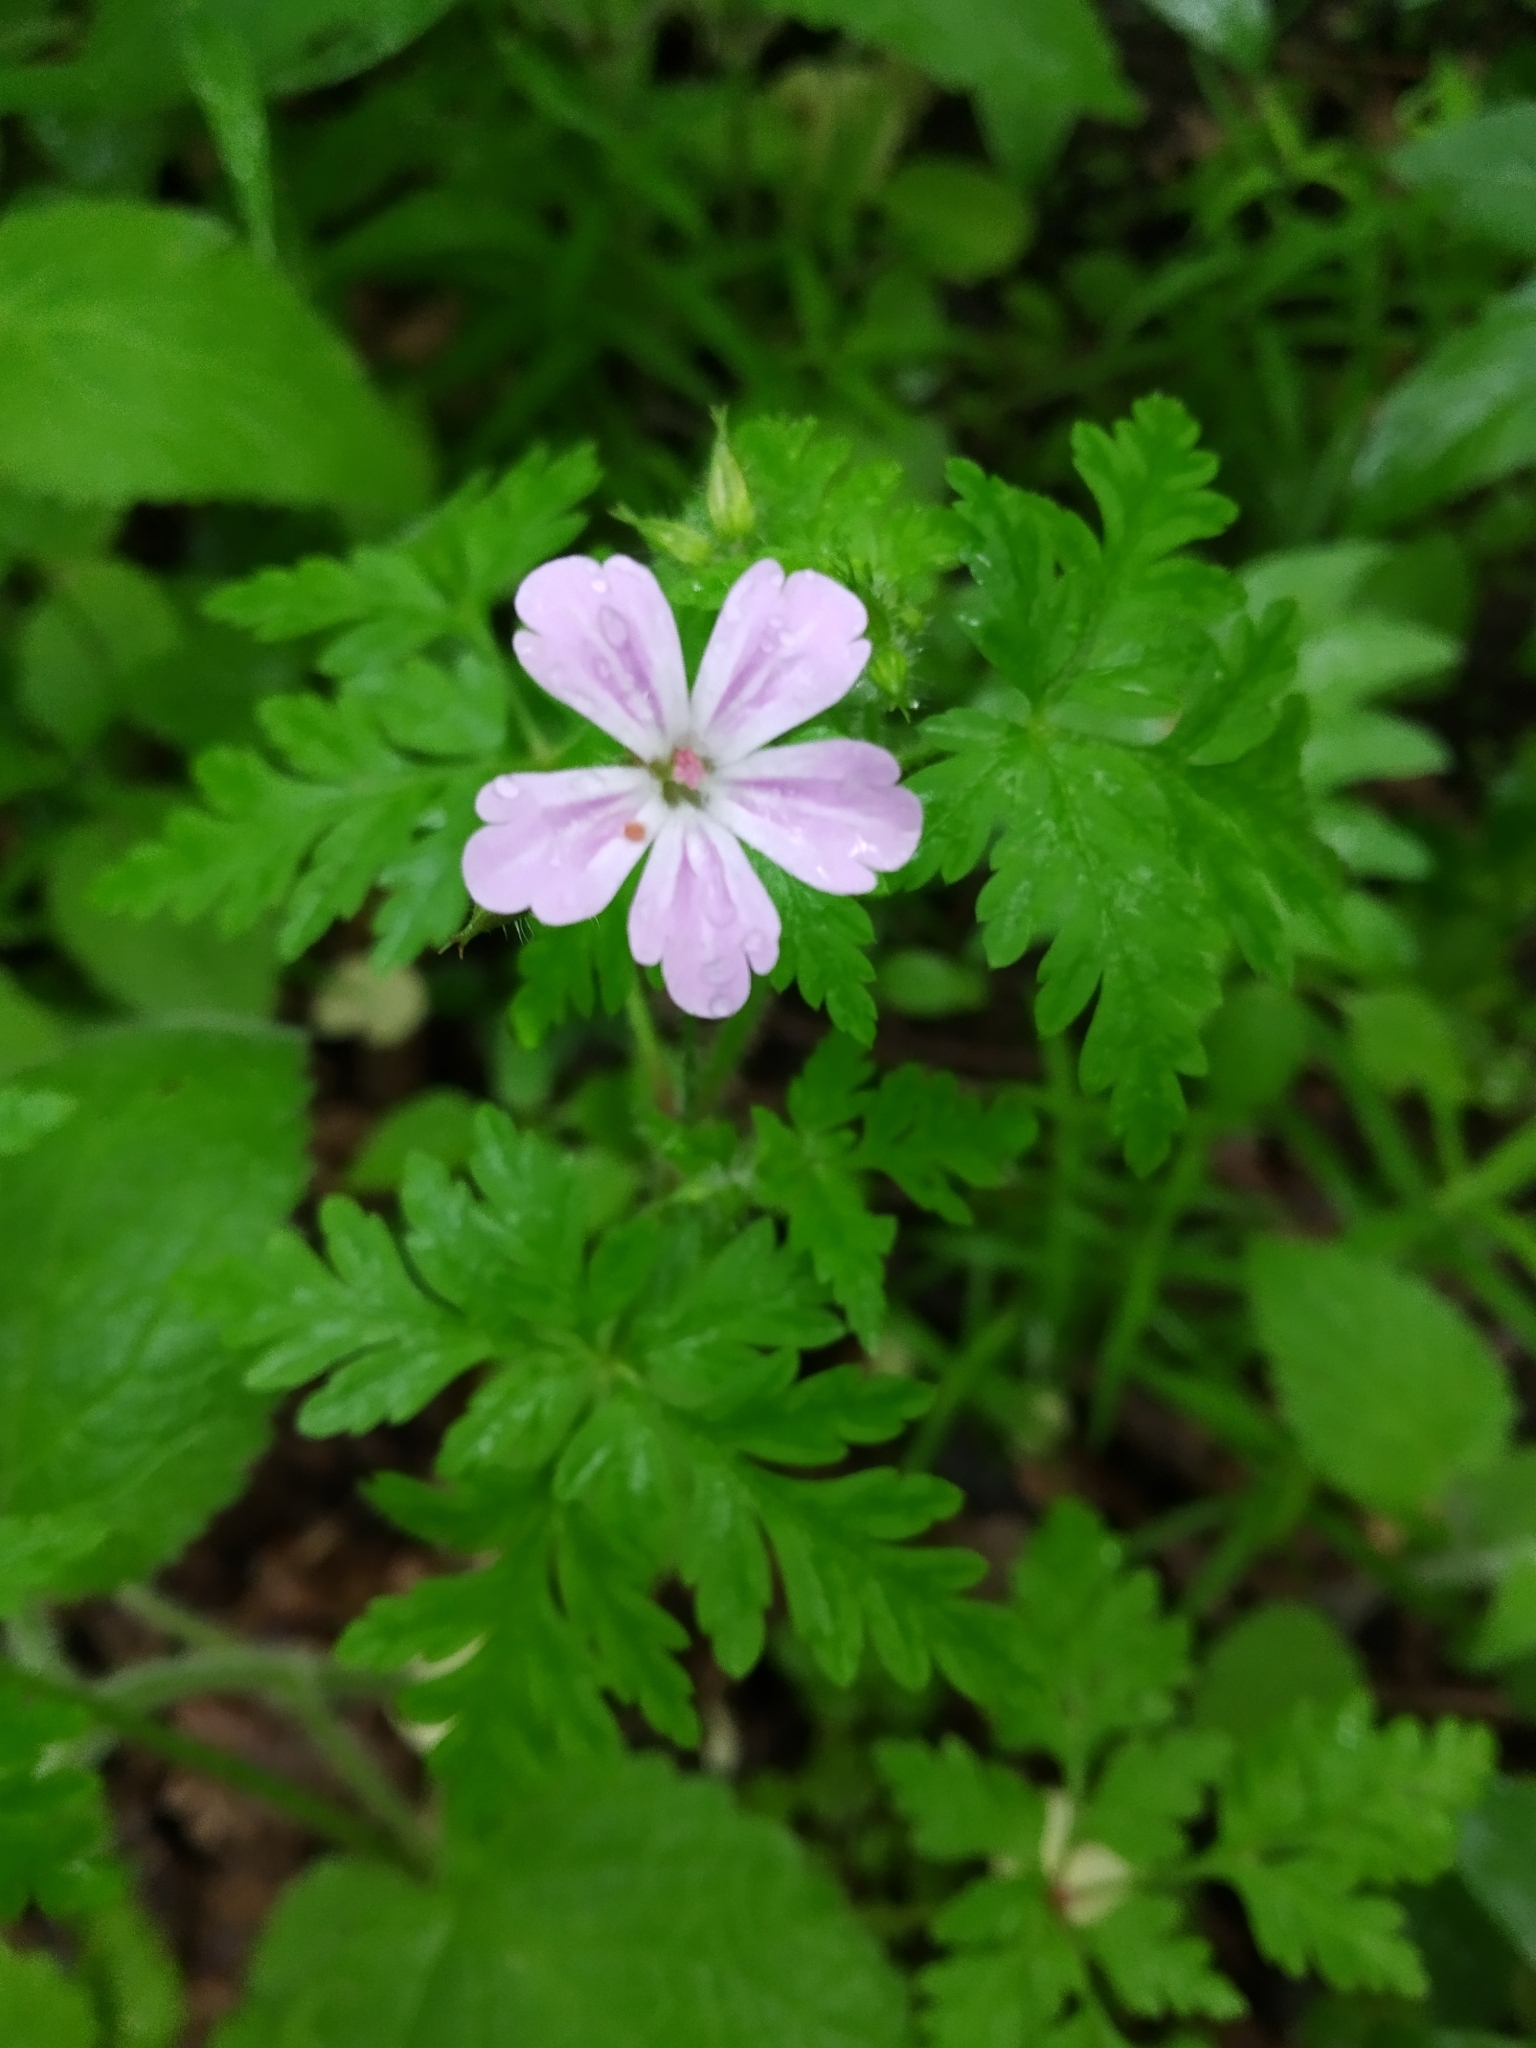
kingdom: Plantae
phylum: Tracheophyta
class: Magnoliopsida
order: Geraniales
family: Geraniaceae
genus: Geranium
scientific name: Geranium robertianum
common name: Herb-robert
